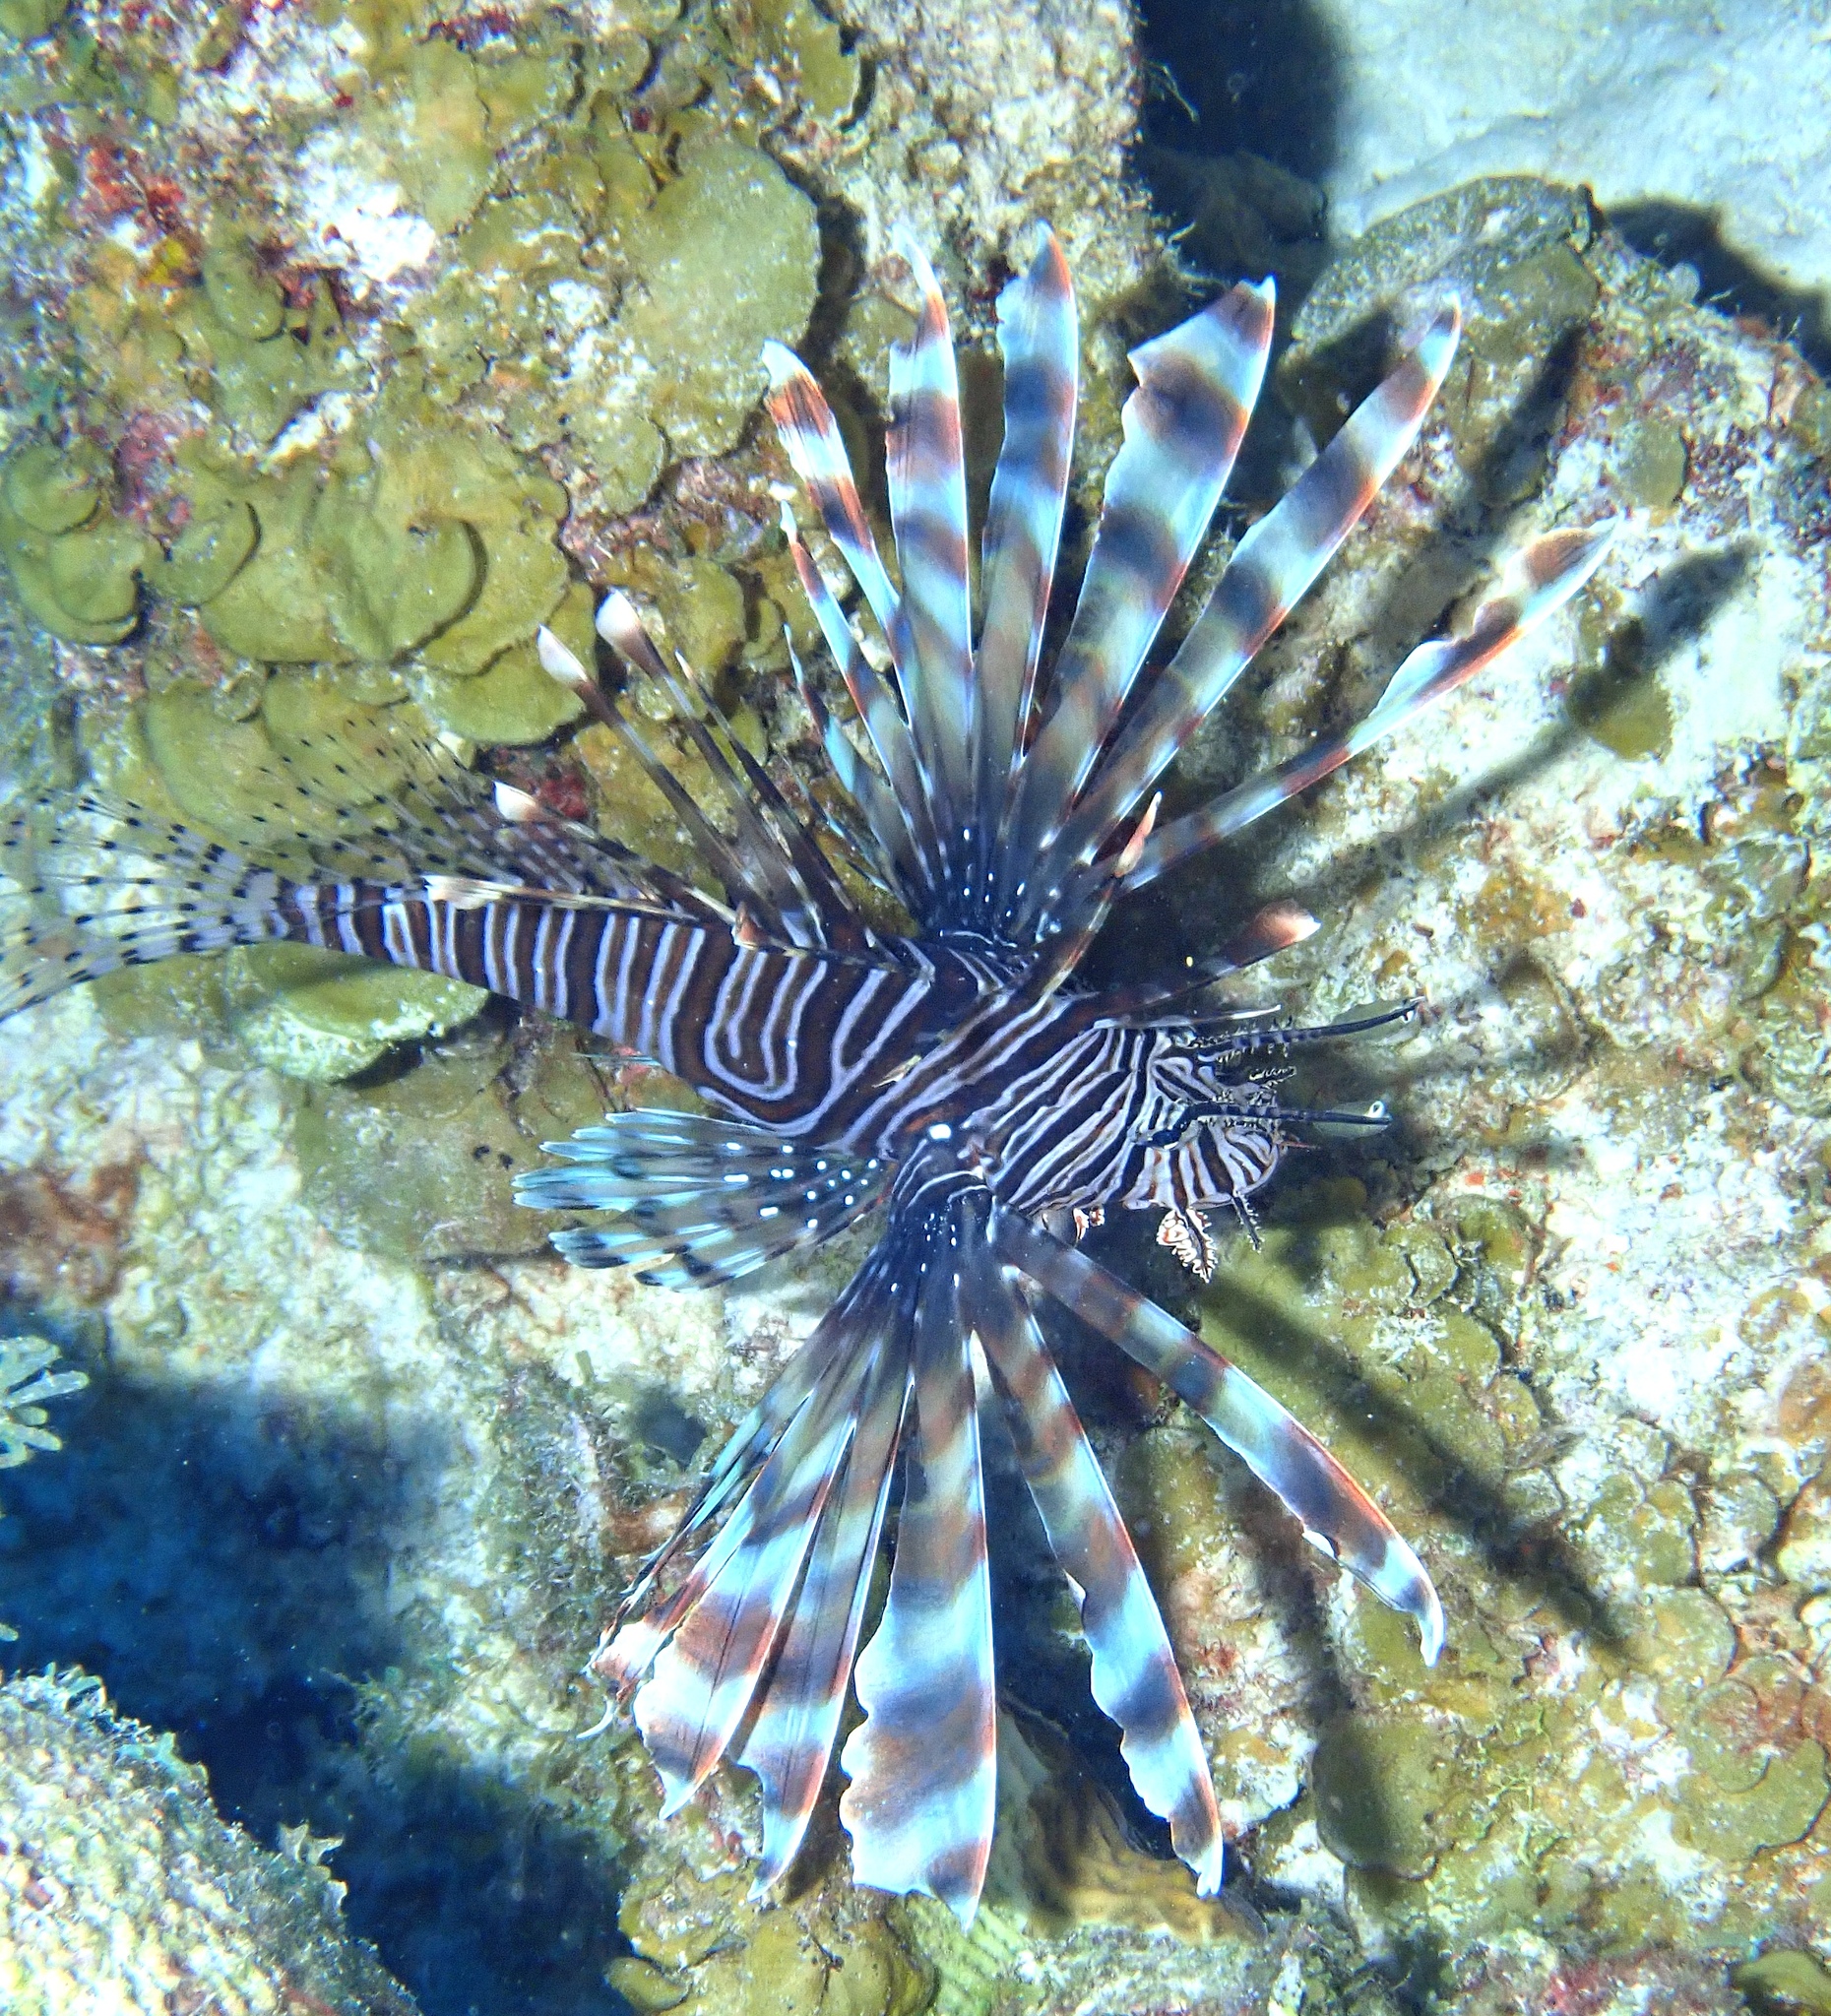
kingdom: Animalia
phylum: Chordata
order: Scorpaeniformes
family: Scorpaenidae
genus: Pterois
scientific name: Pterois volitans
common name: Lionfish
